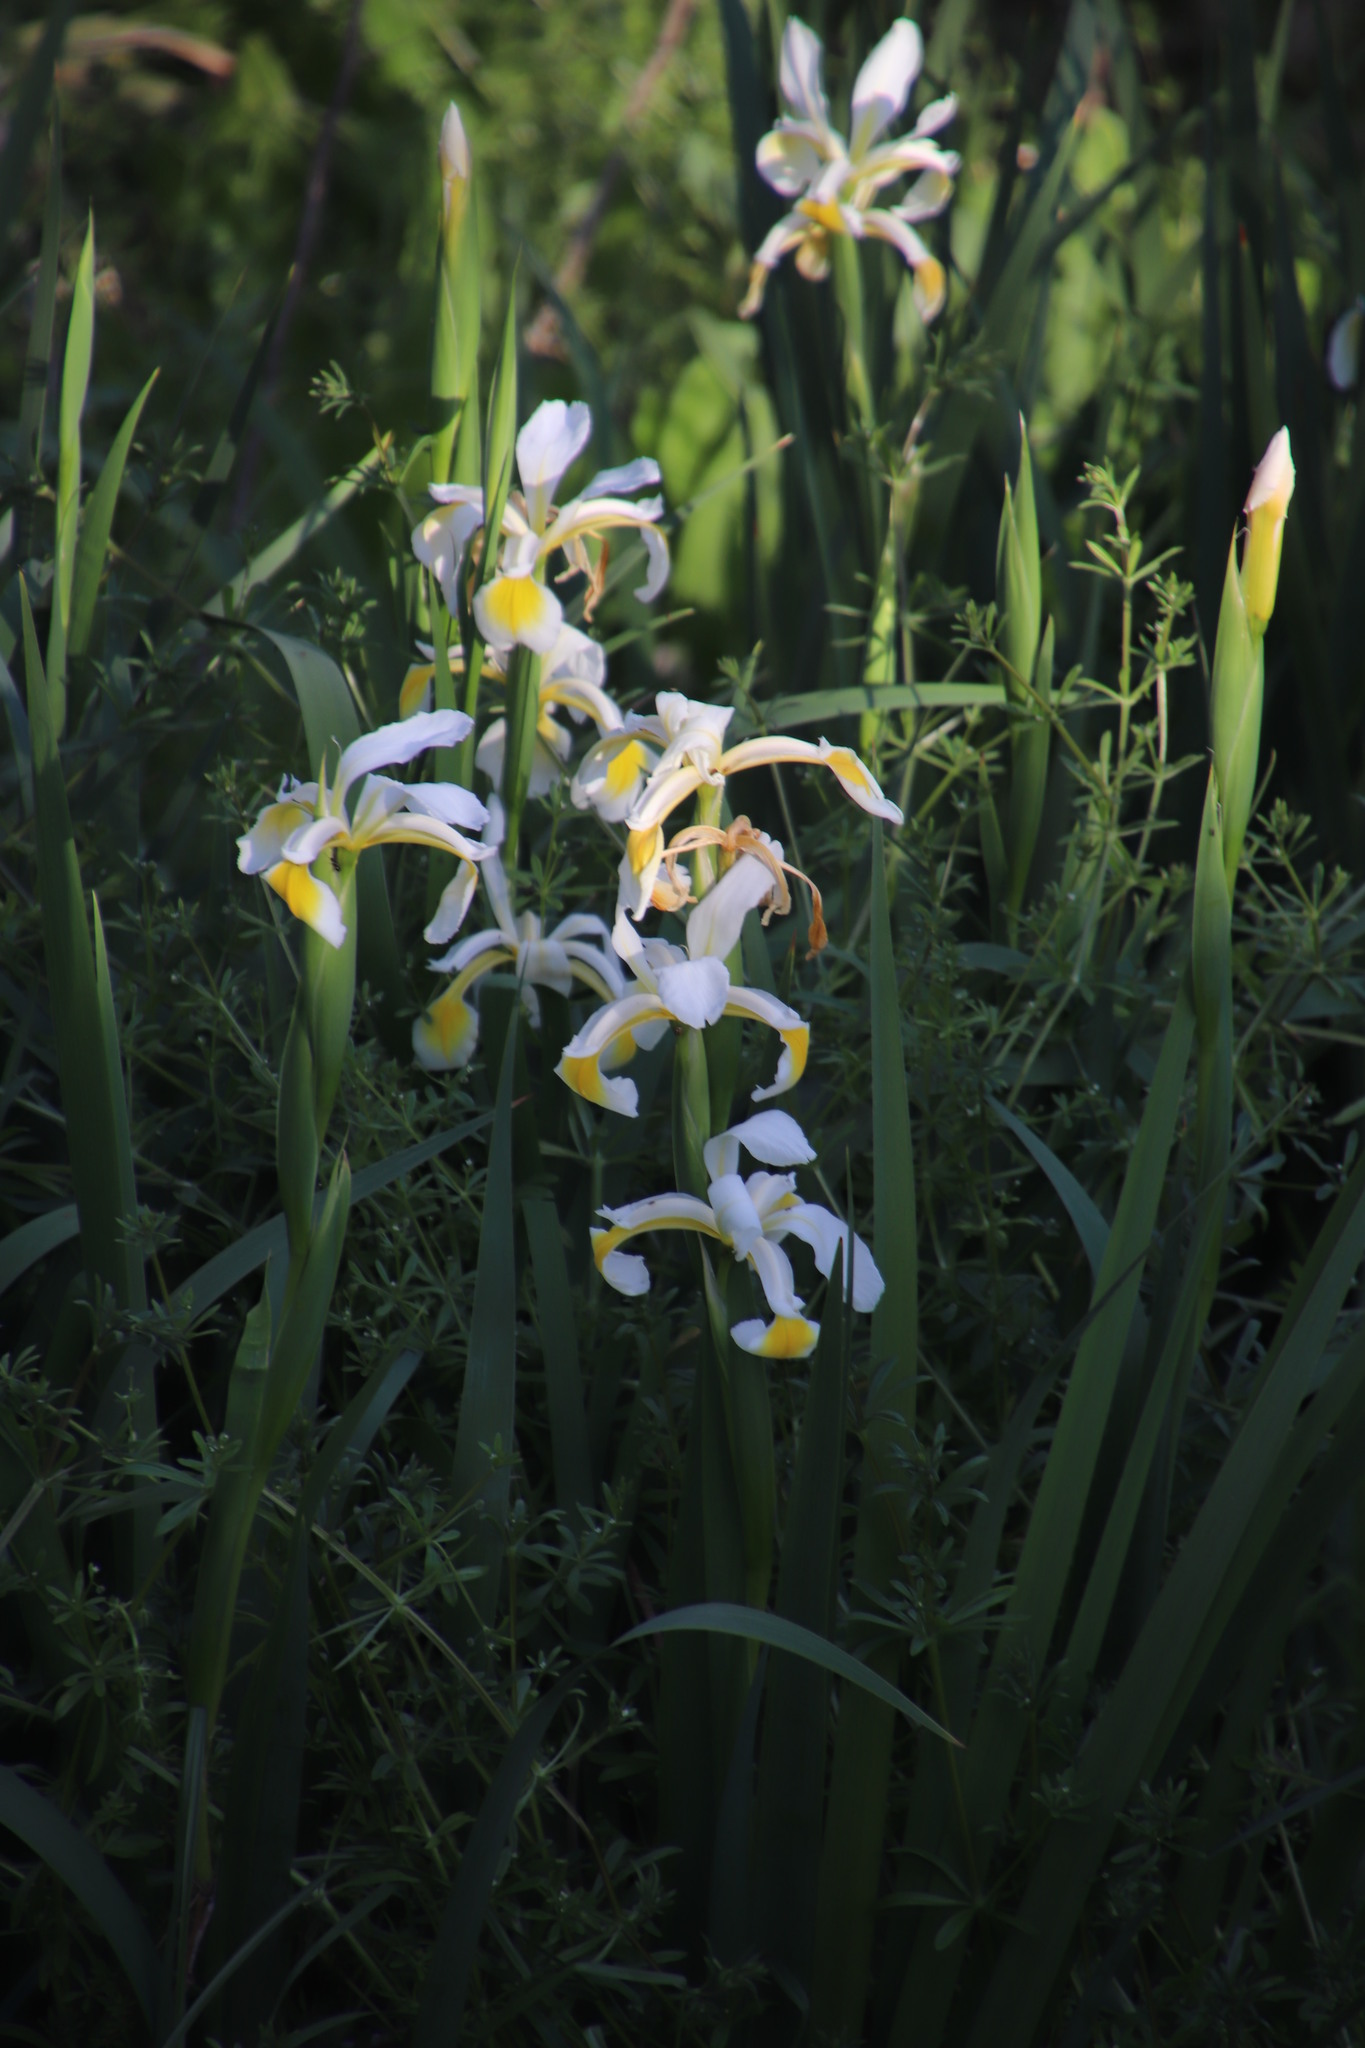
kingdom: Plantae
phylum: Tracheophyta
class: Liliopsida
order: Asparagales
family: Iridaceae
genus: Iris
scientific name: Iris orientalis
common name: Turkish iris
